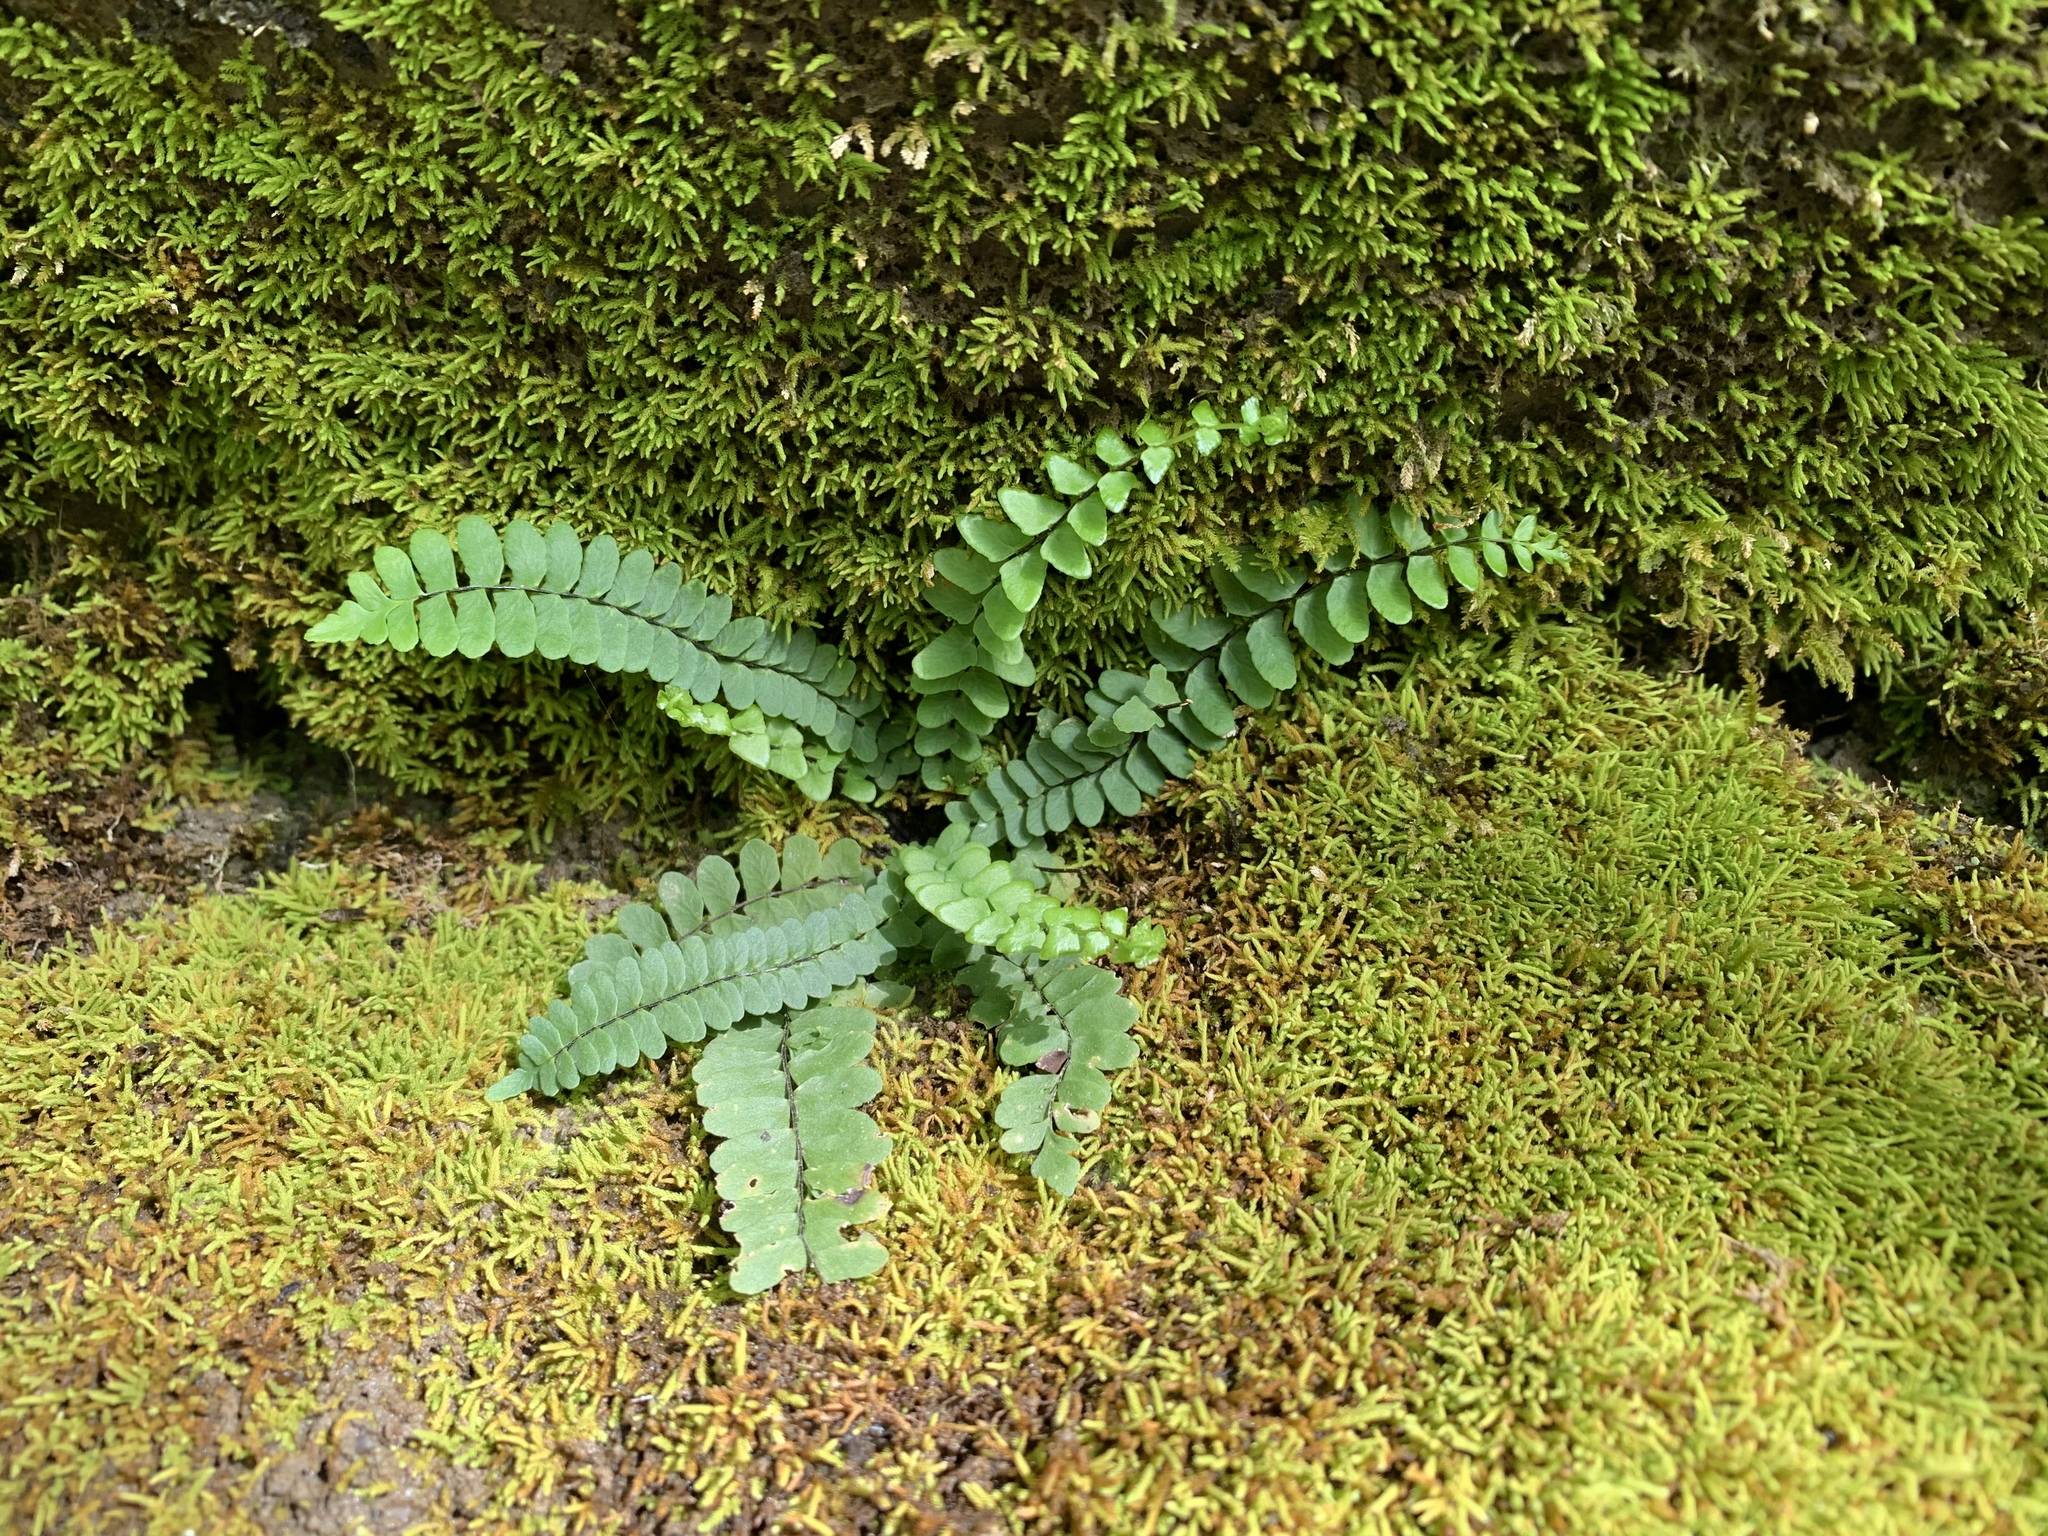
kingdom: Plantae
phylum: Tracheophyta
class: Polypodiopsida
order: Polypodiales
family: Aspleniaceae
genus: Asplenium
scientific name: Asplenium resiliens
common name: Blackstem spleenwort
